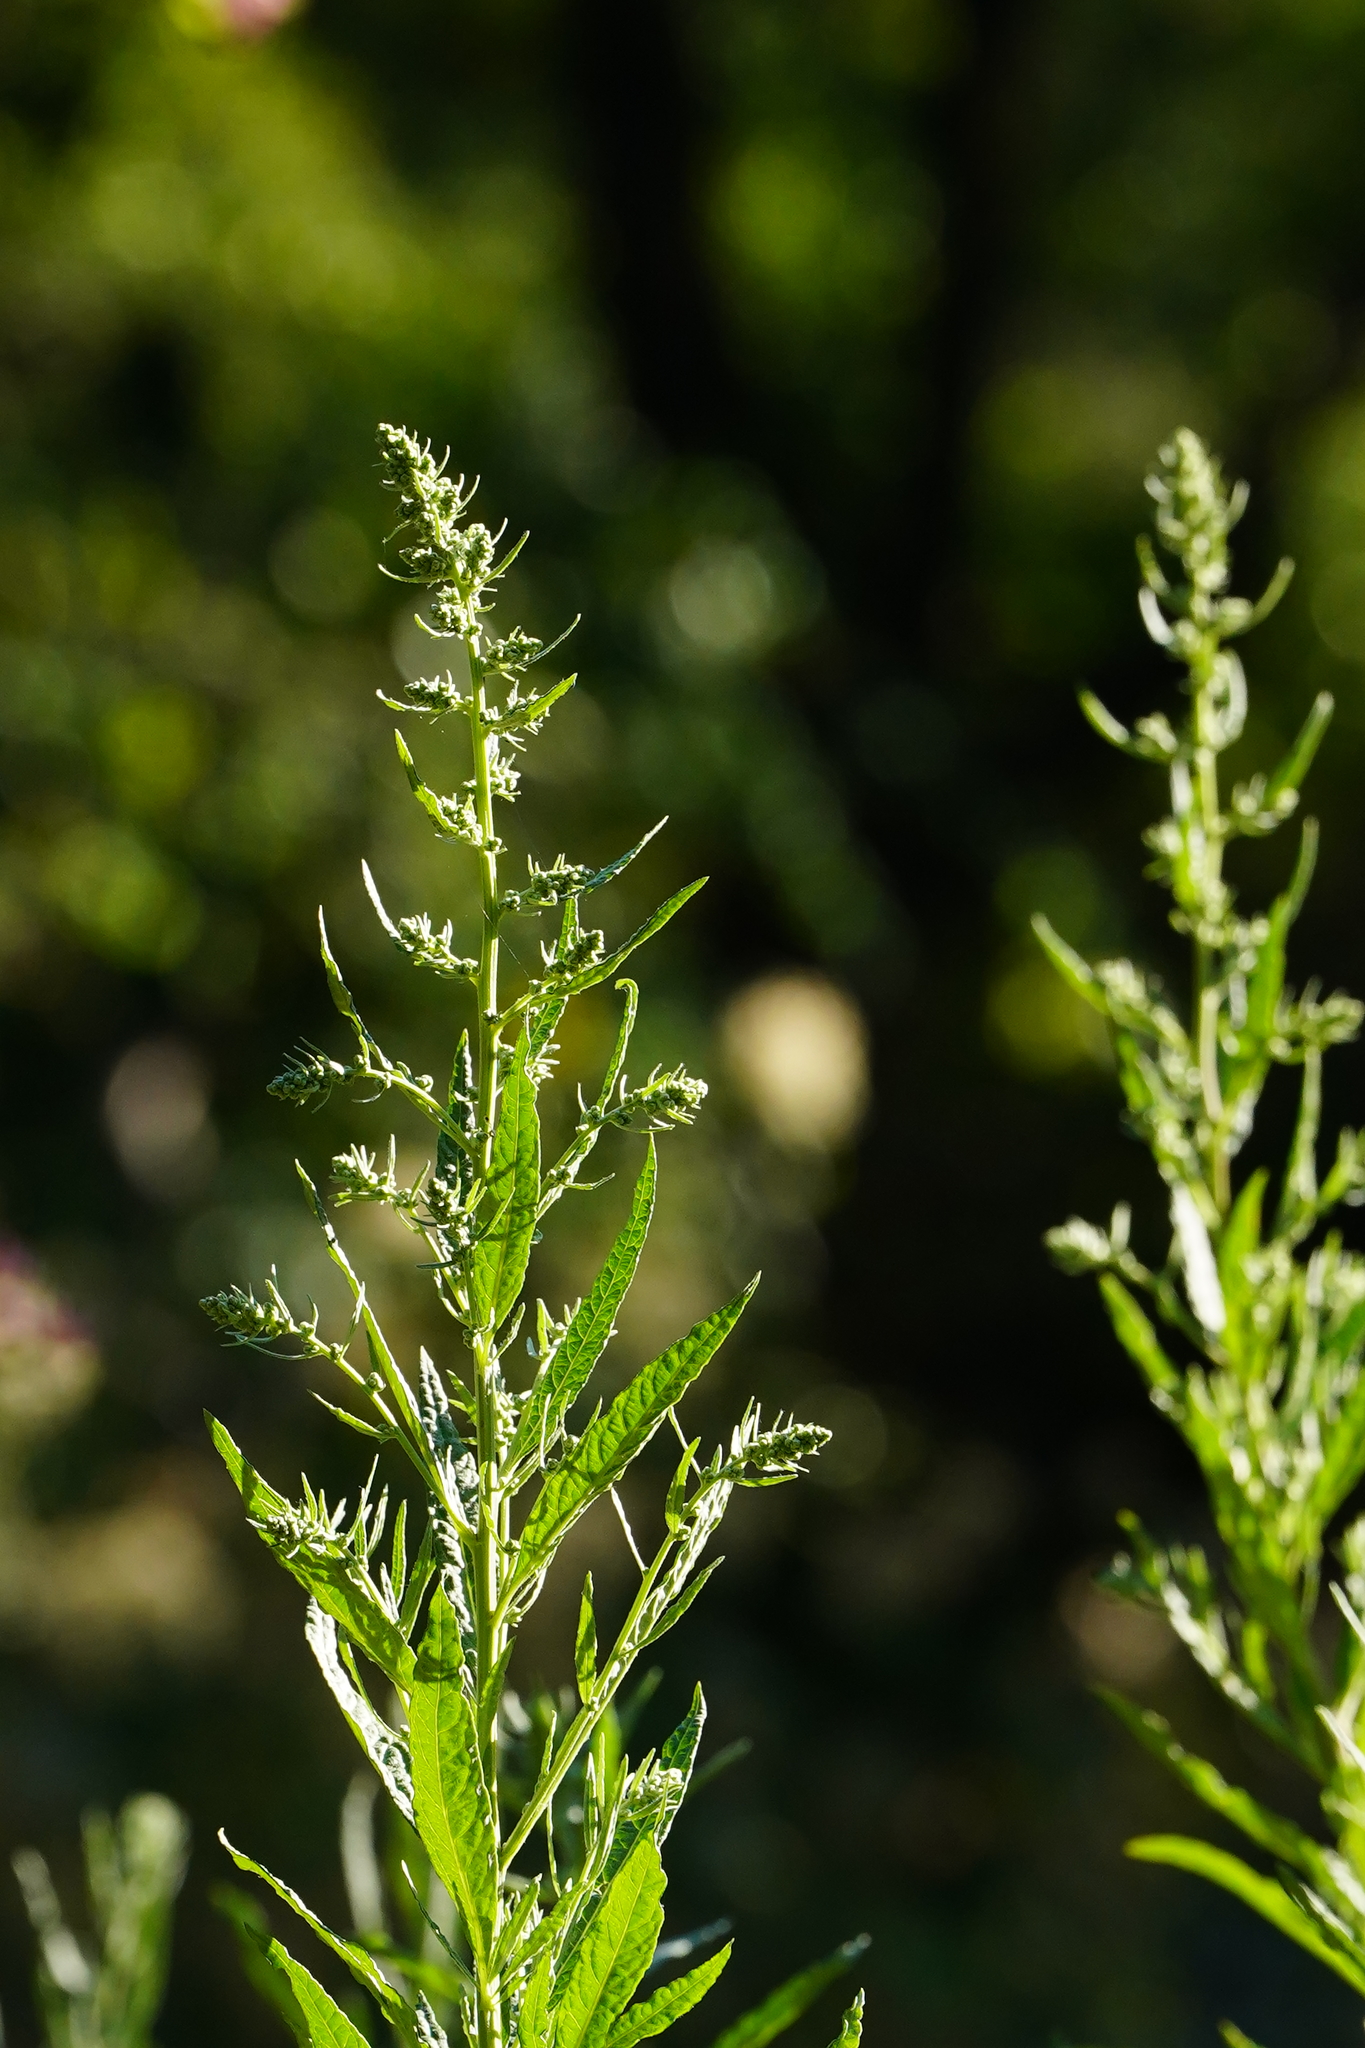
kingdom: Plantae
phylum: Tracheophyta
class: Magnoliopsida
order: Asterales
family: Asteraceae
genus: Artemisia
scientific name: Artemisia douglasiana
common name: Northwest mugwort
